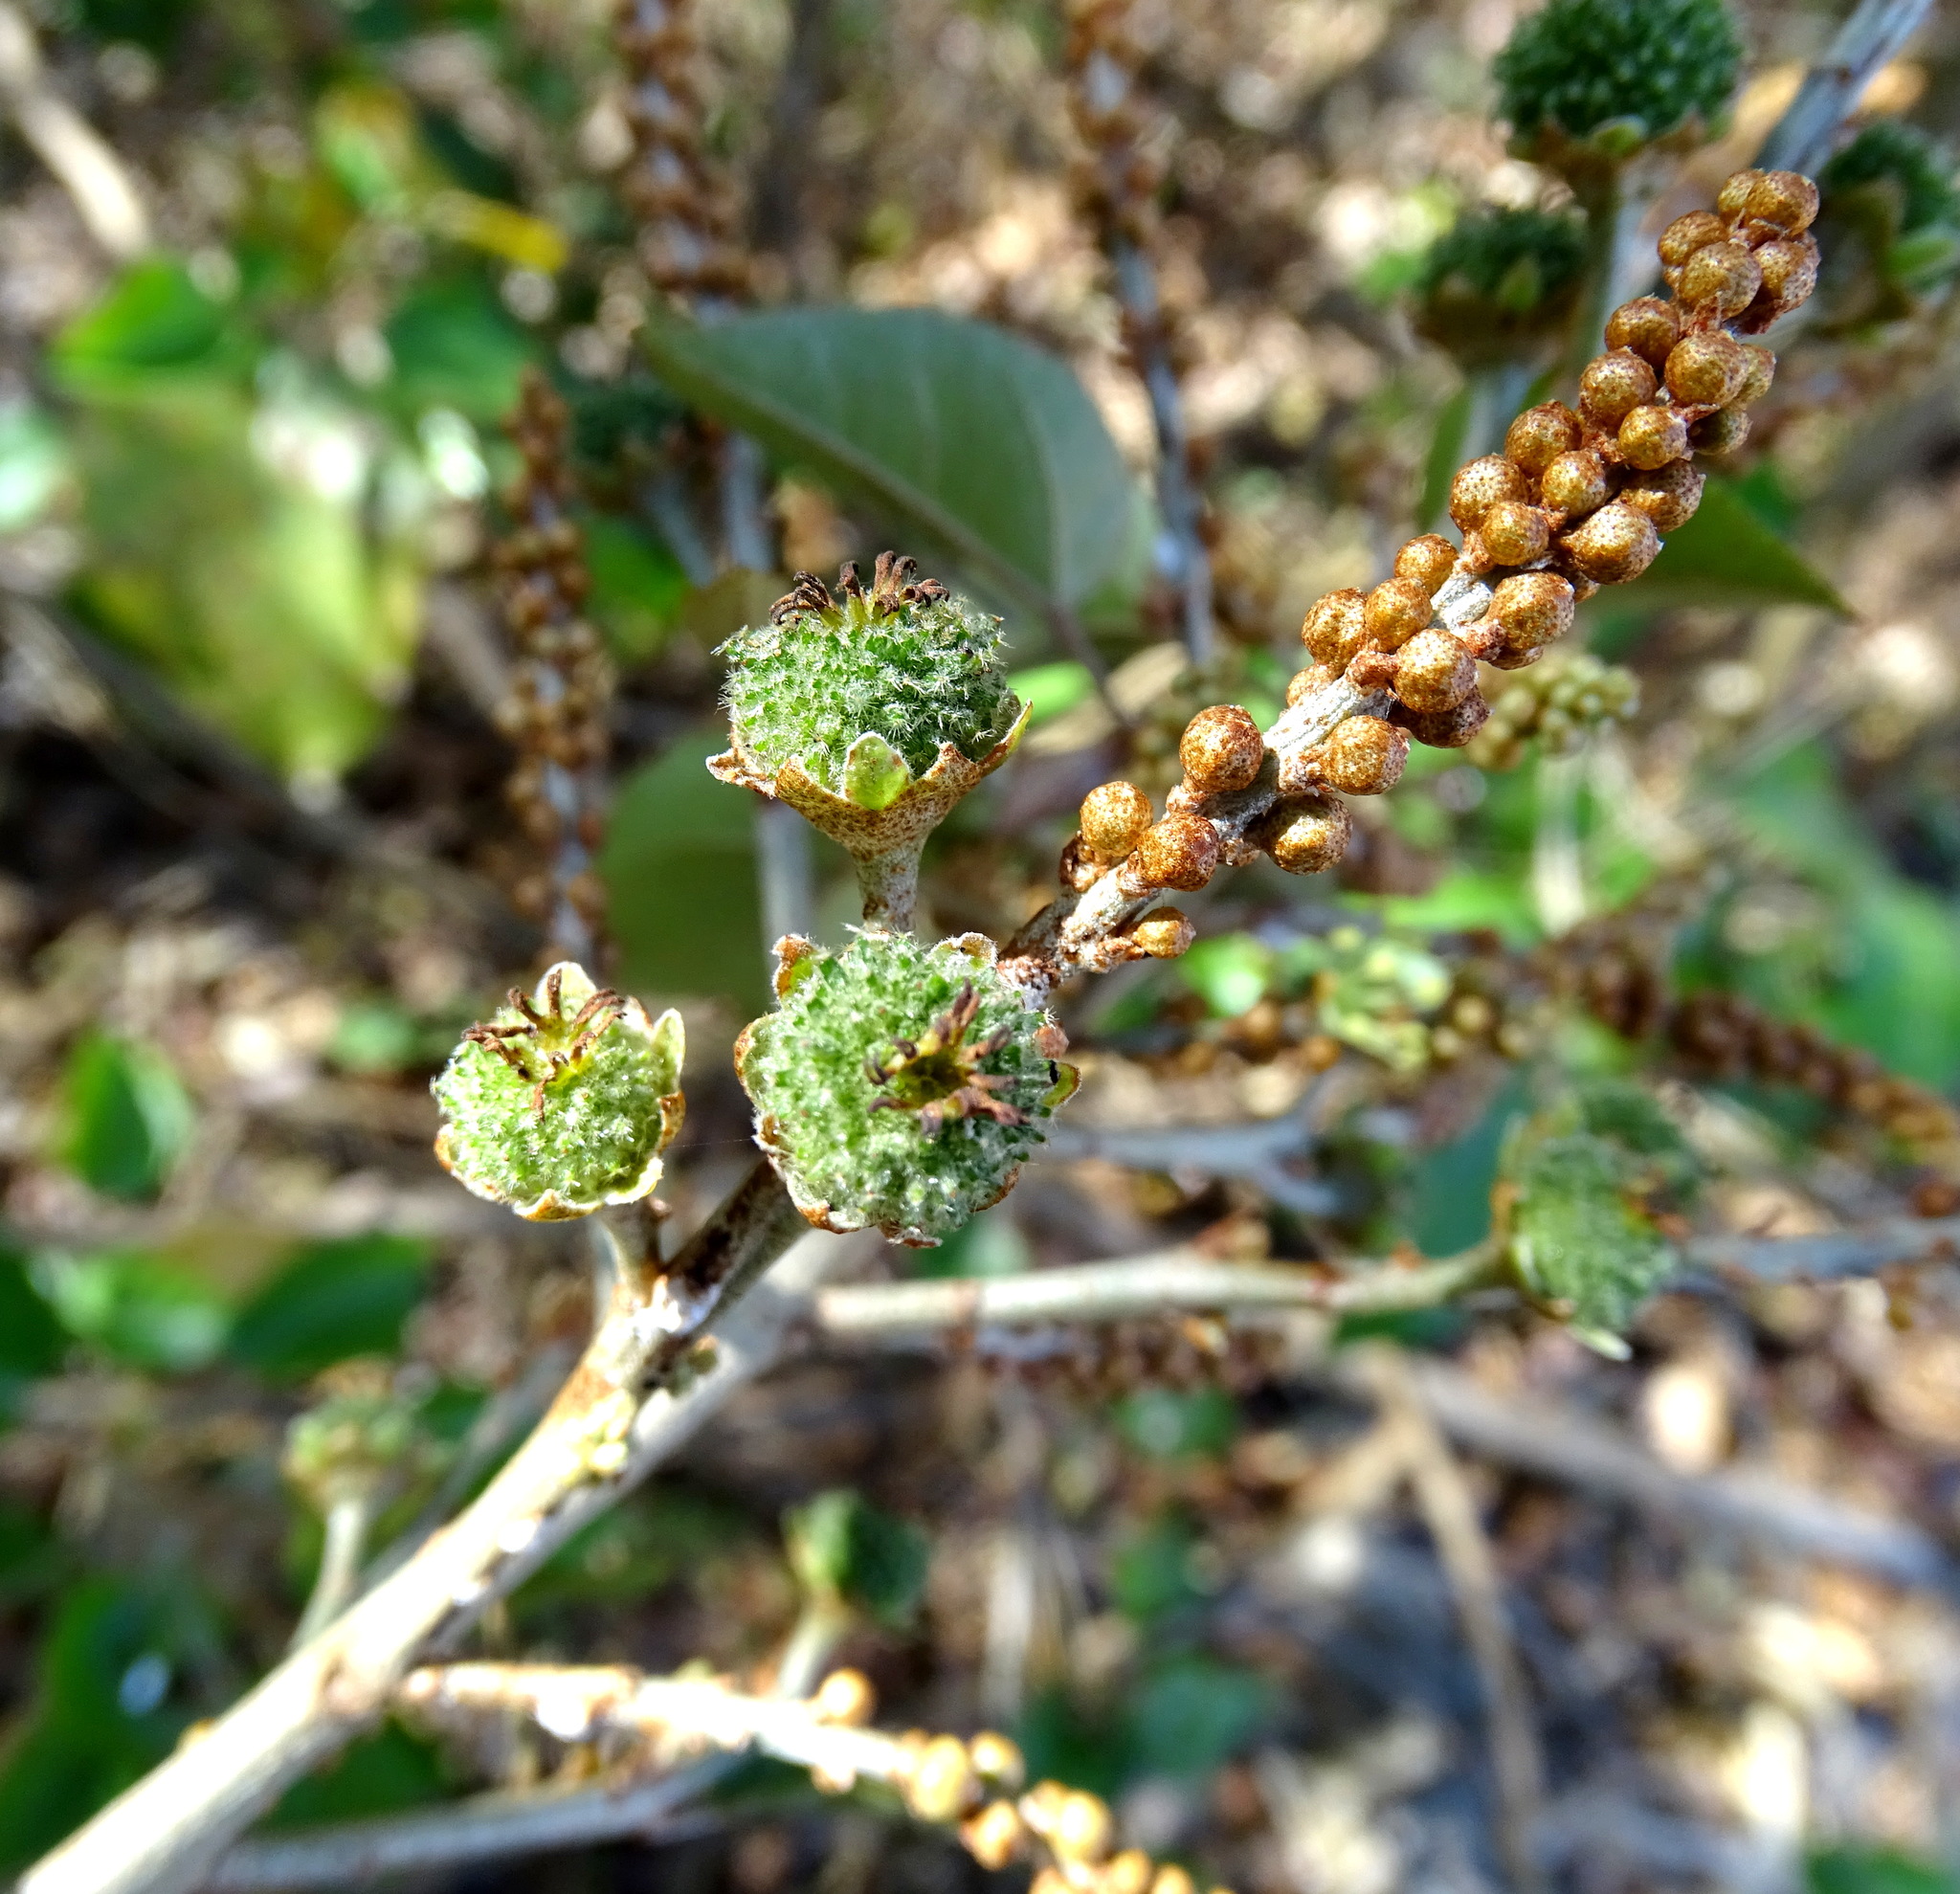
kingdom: Plantae
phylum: Tracheophyta
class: Magnoliopsida
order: Malpighiales
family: Euphorbiaceae
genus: Croton
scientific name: Croton arboreus
